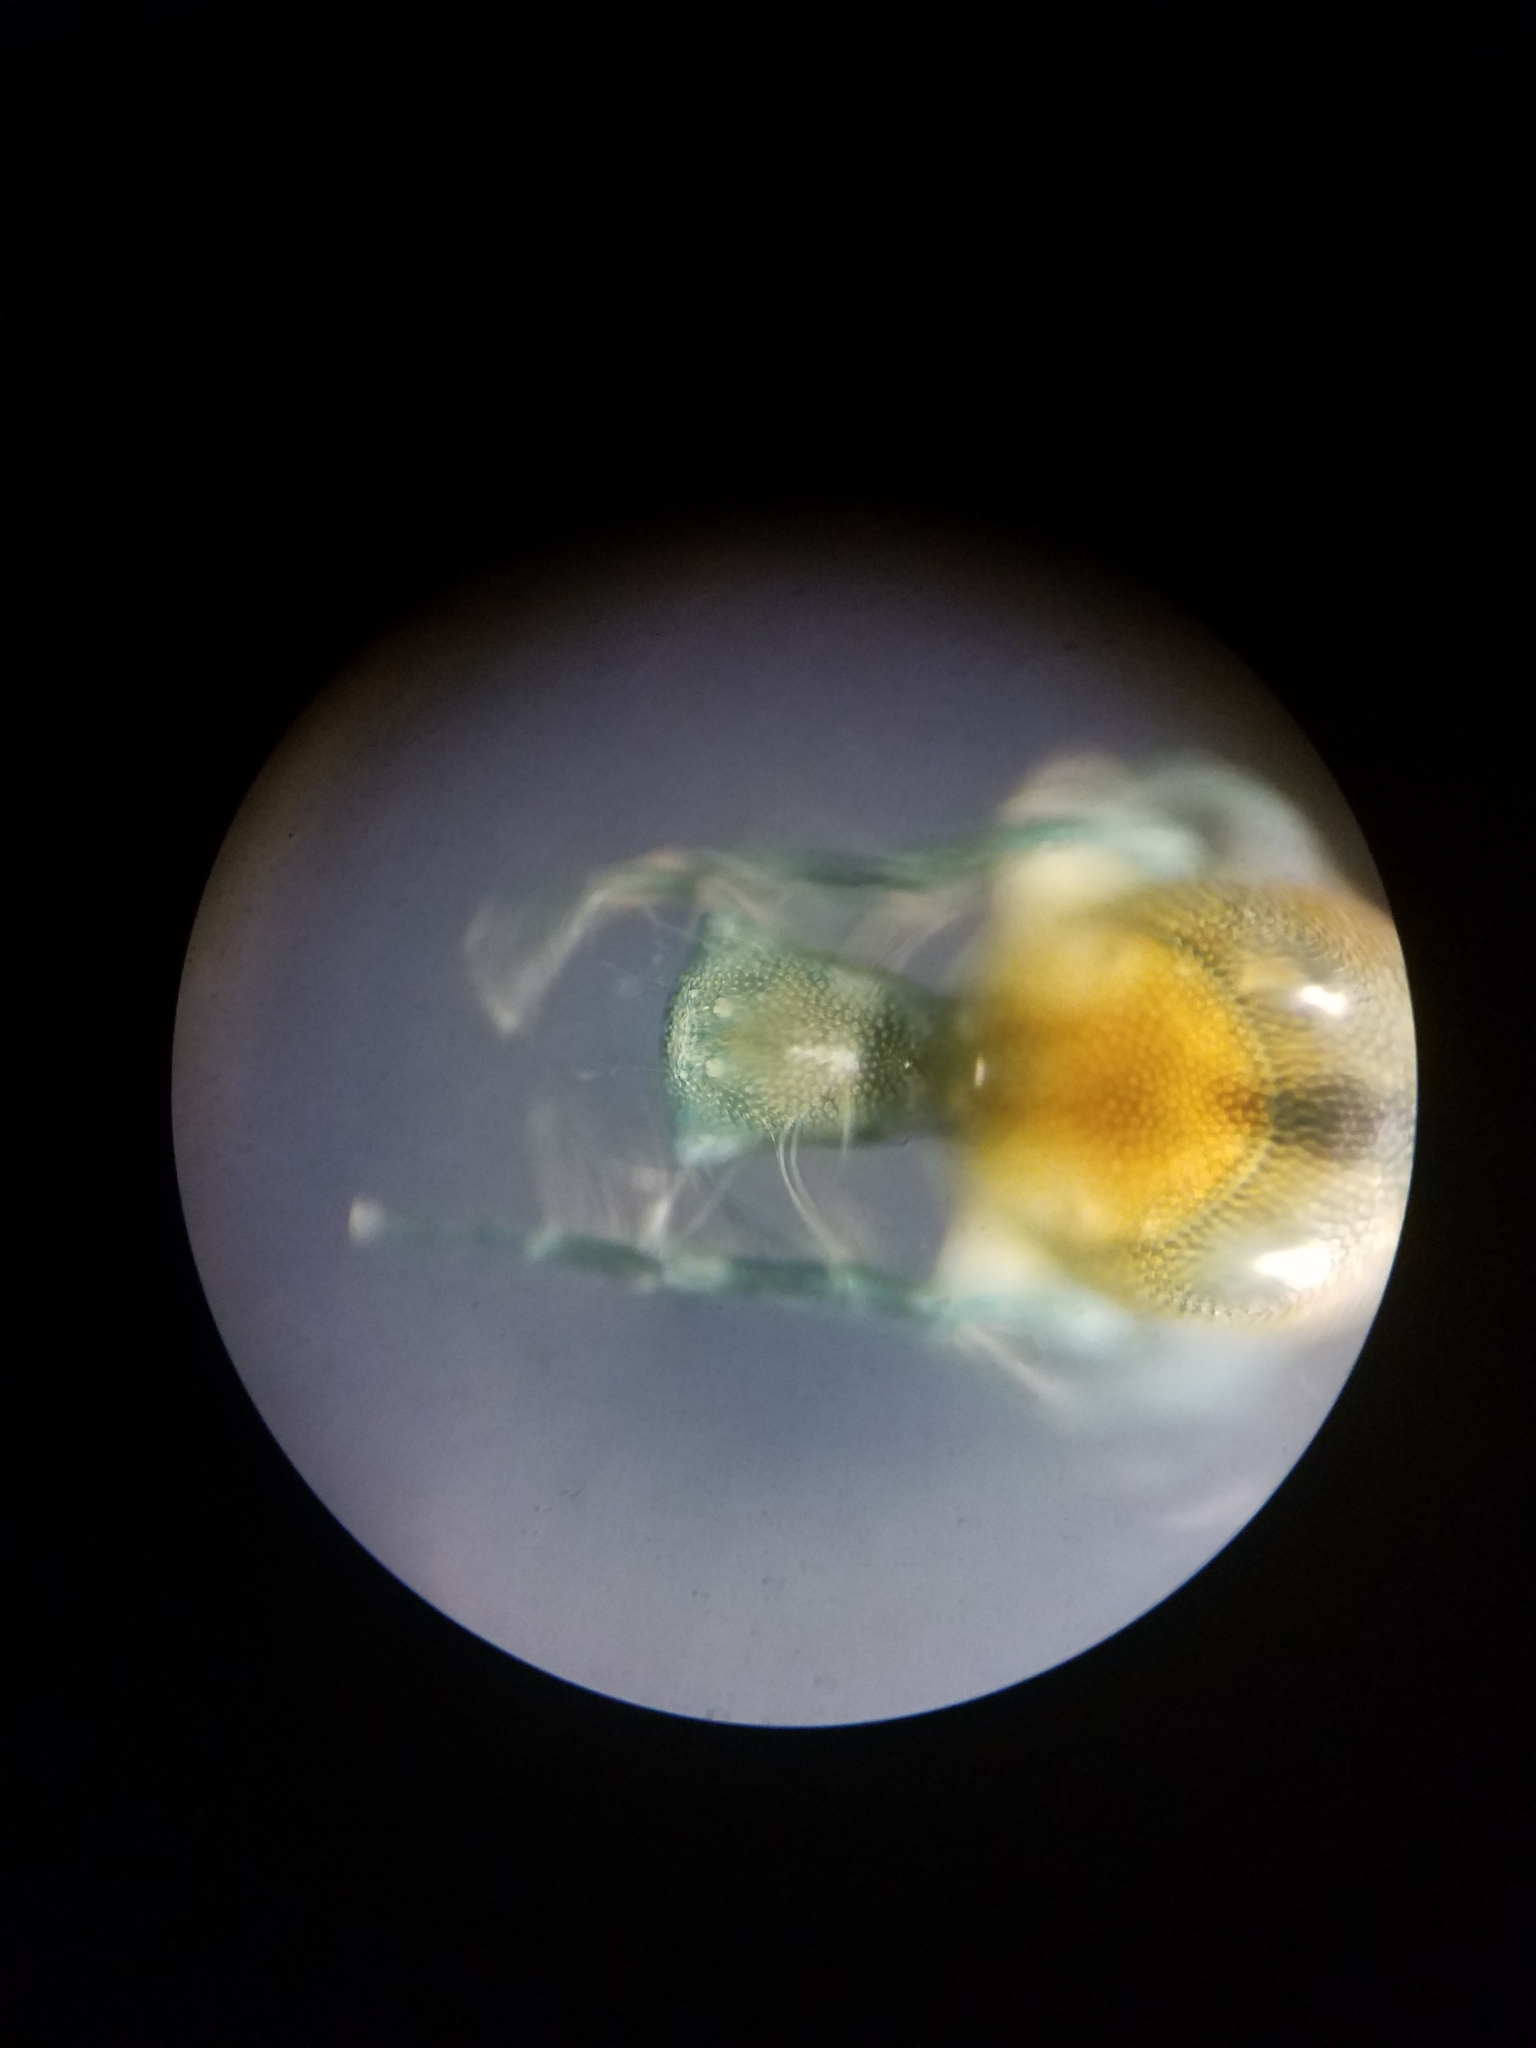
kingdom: Animalia
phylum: Arthropoda
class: Arachnida
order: Trombidiformes
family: Arrenuridae
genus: Arrenurus
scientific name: Arrenurus expansa
